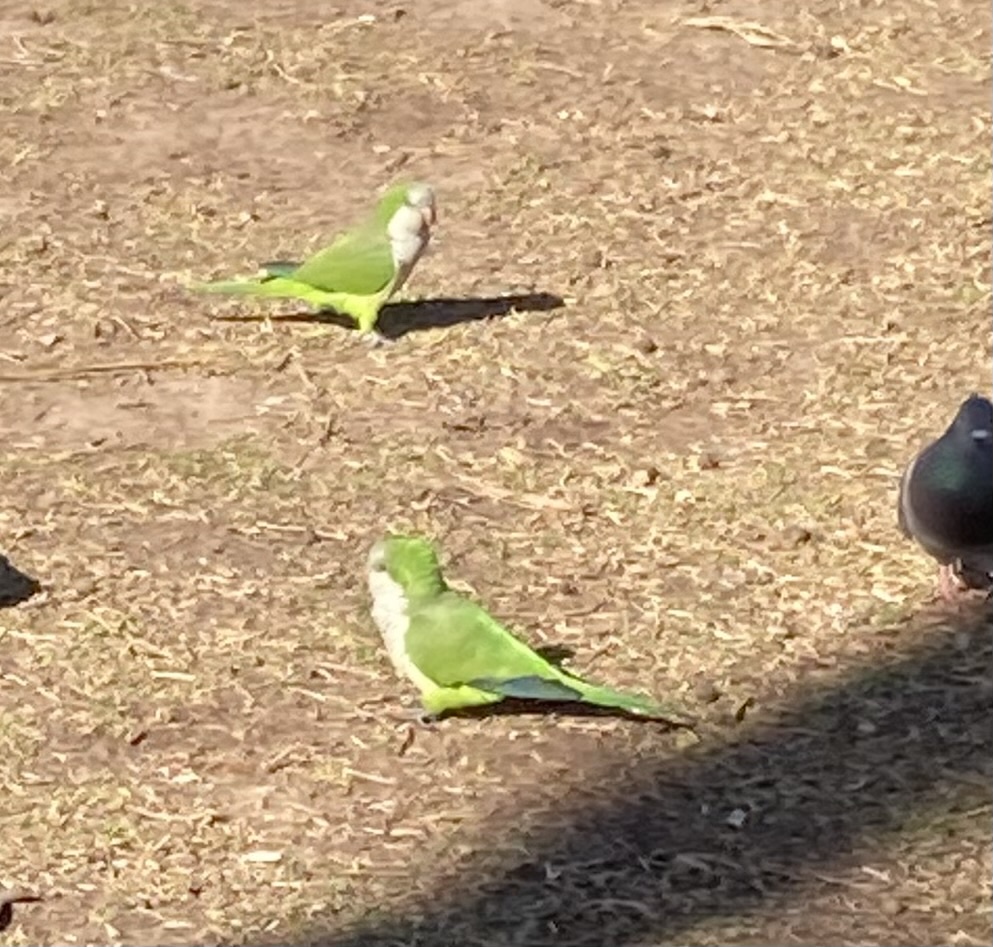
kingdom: Animalia
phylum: Chordata
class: Aves
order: Psittaciformes
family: Psittacidae
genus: Myiopsitta
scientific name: Myiopsitta monachus
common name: Monk parakeet
